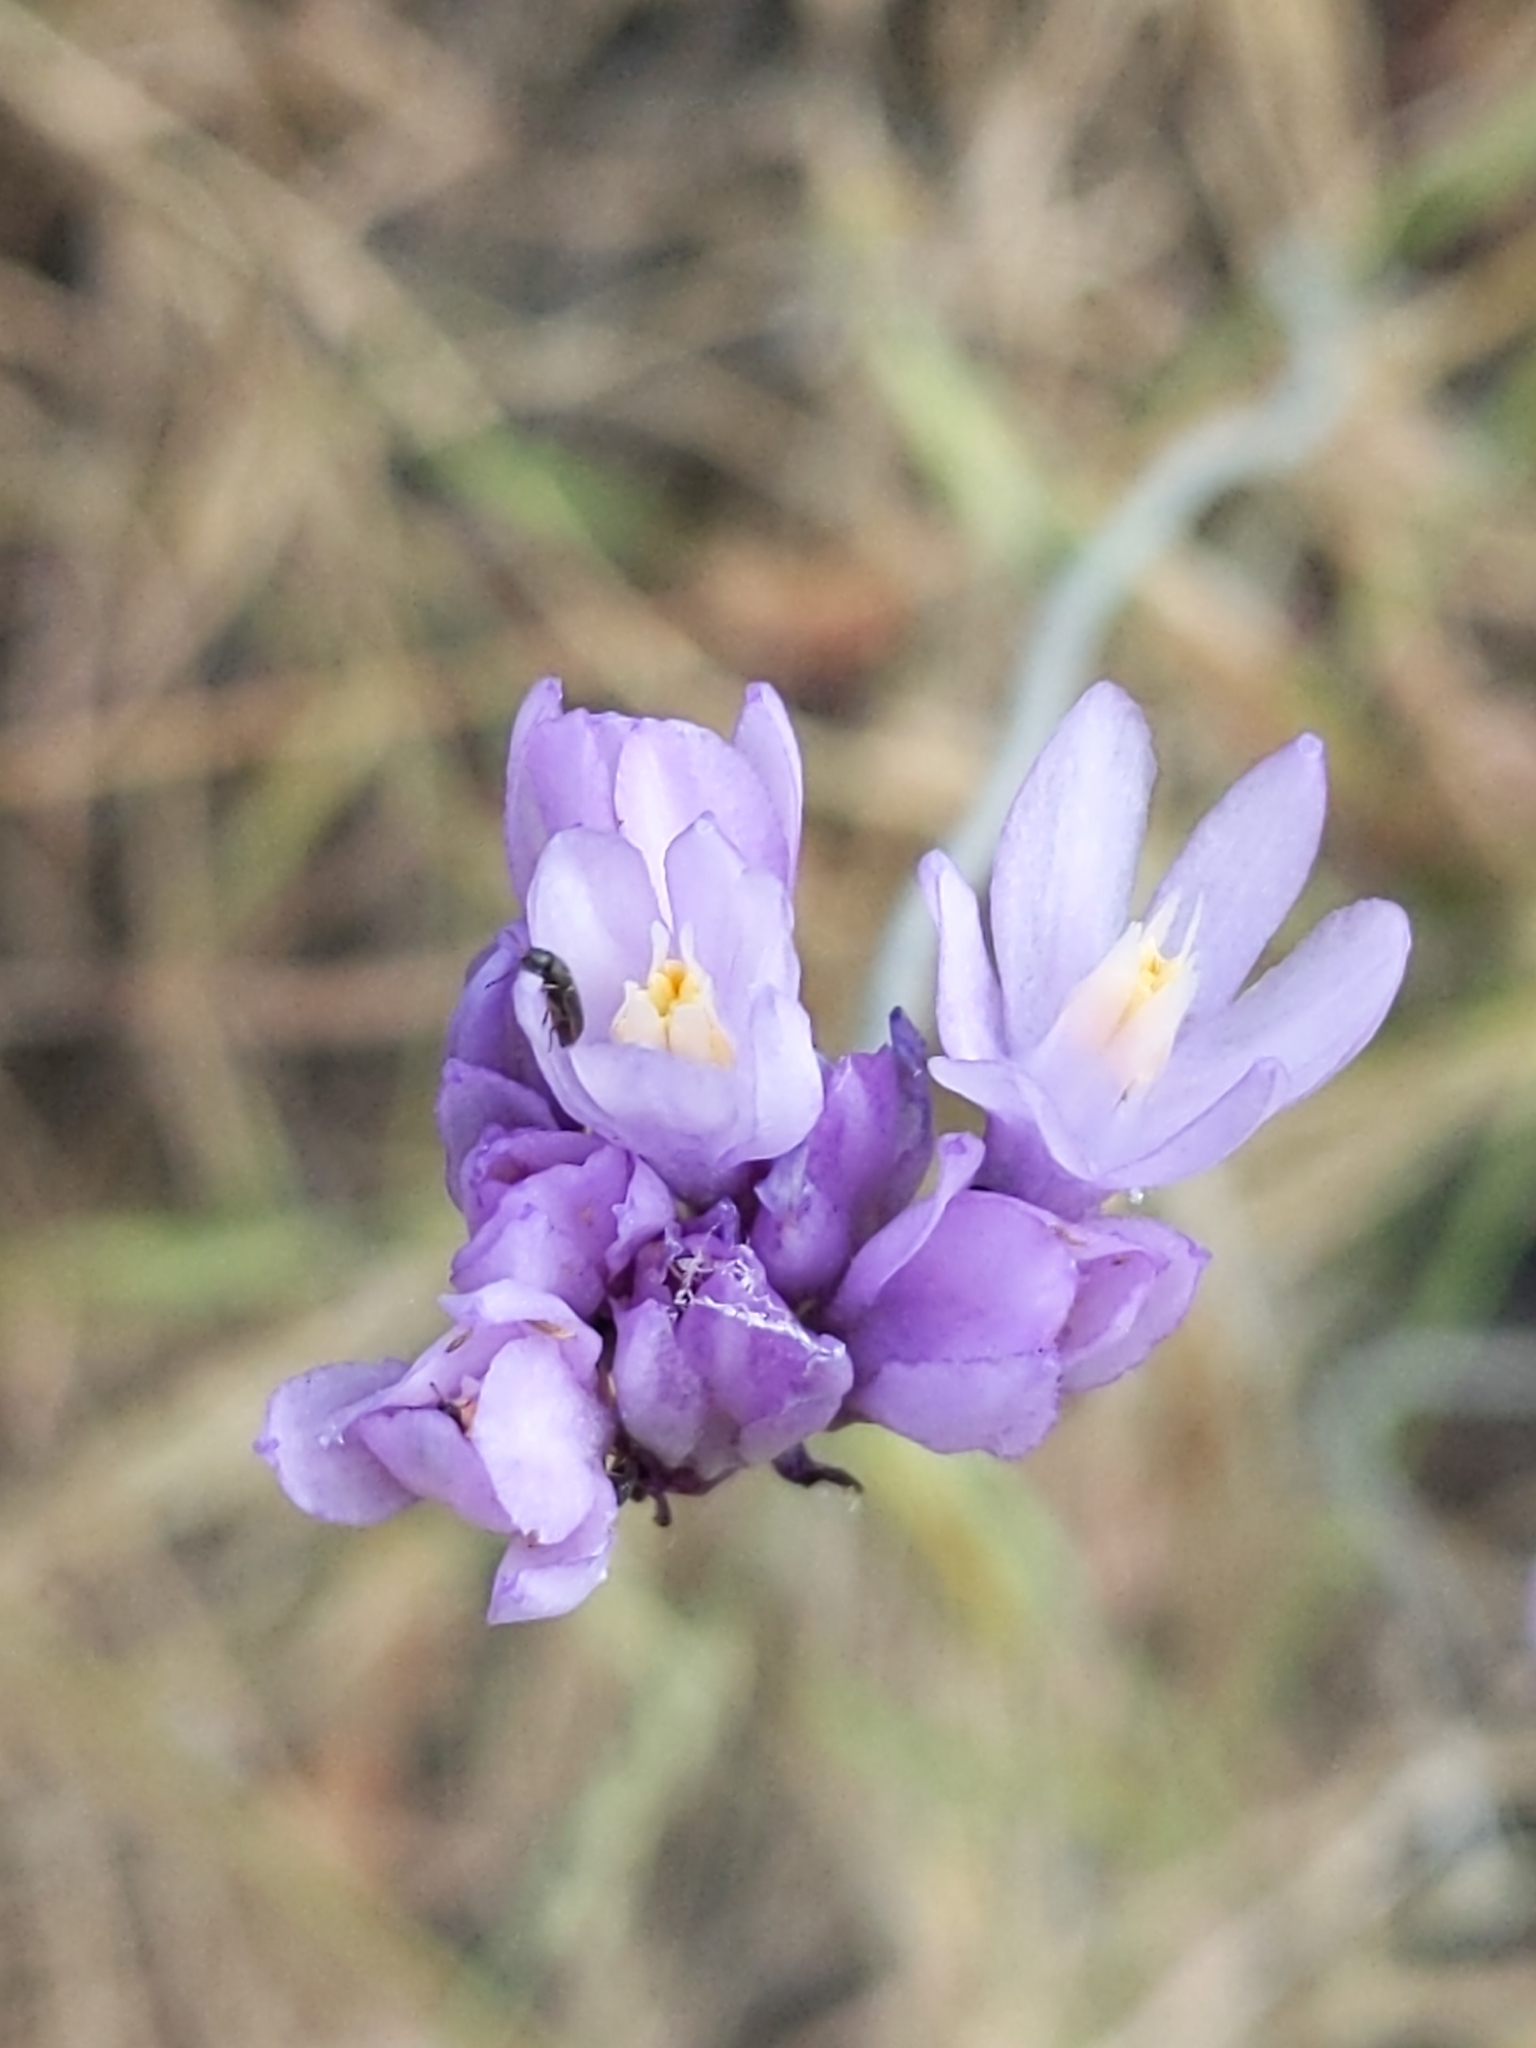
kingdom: Plantae
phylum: Tracheophyta
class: Liliopsida
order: Asparagales
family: Asparagaceae
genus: Dipterostemon
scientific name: Dipterostemon capitatus
